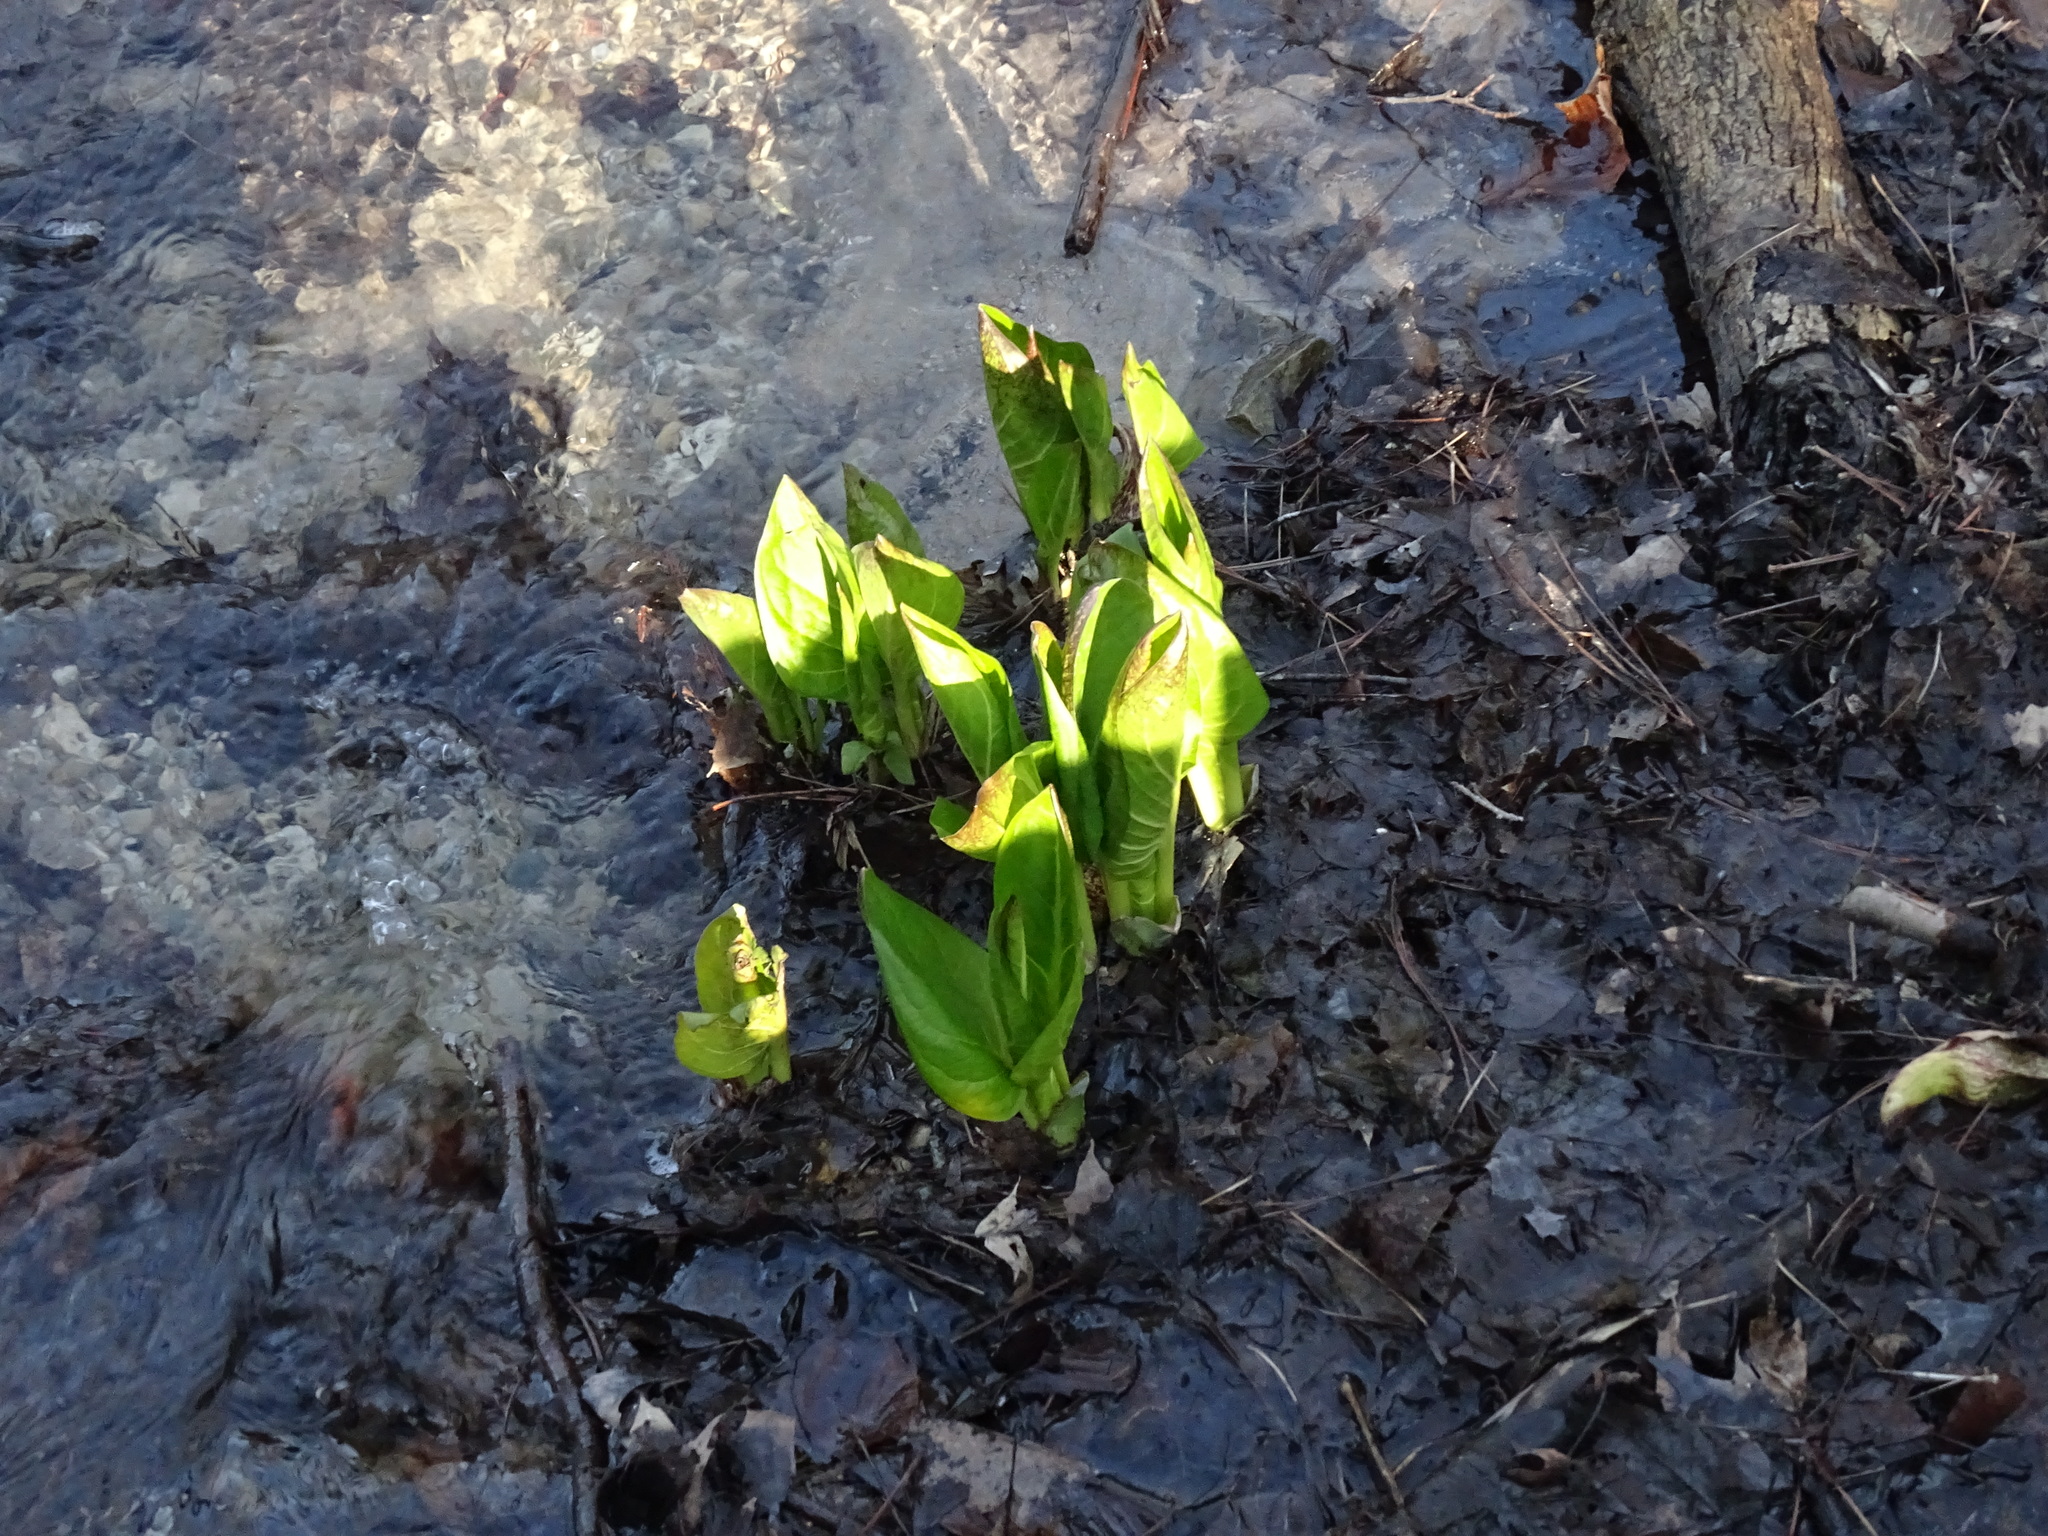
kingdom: Plantae
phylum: Tracheophyta
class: Liliopsida
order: Alismatales
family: Araceae
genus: Symplocarpus
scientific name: Symplocarpus foetidus
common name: Eastern skunk cabbage
